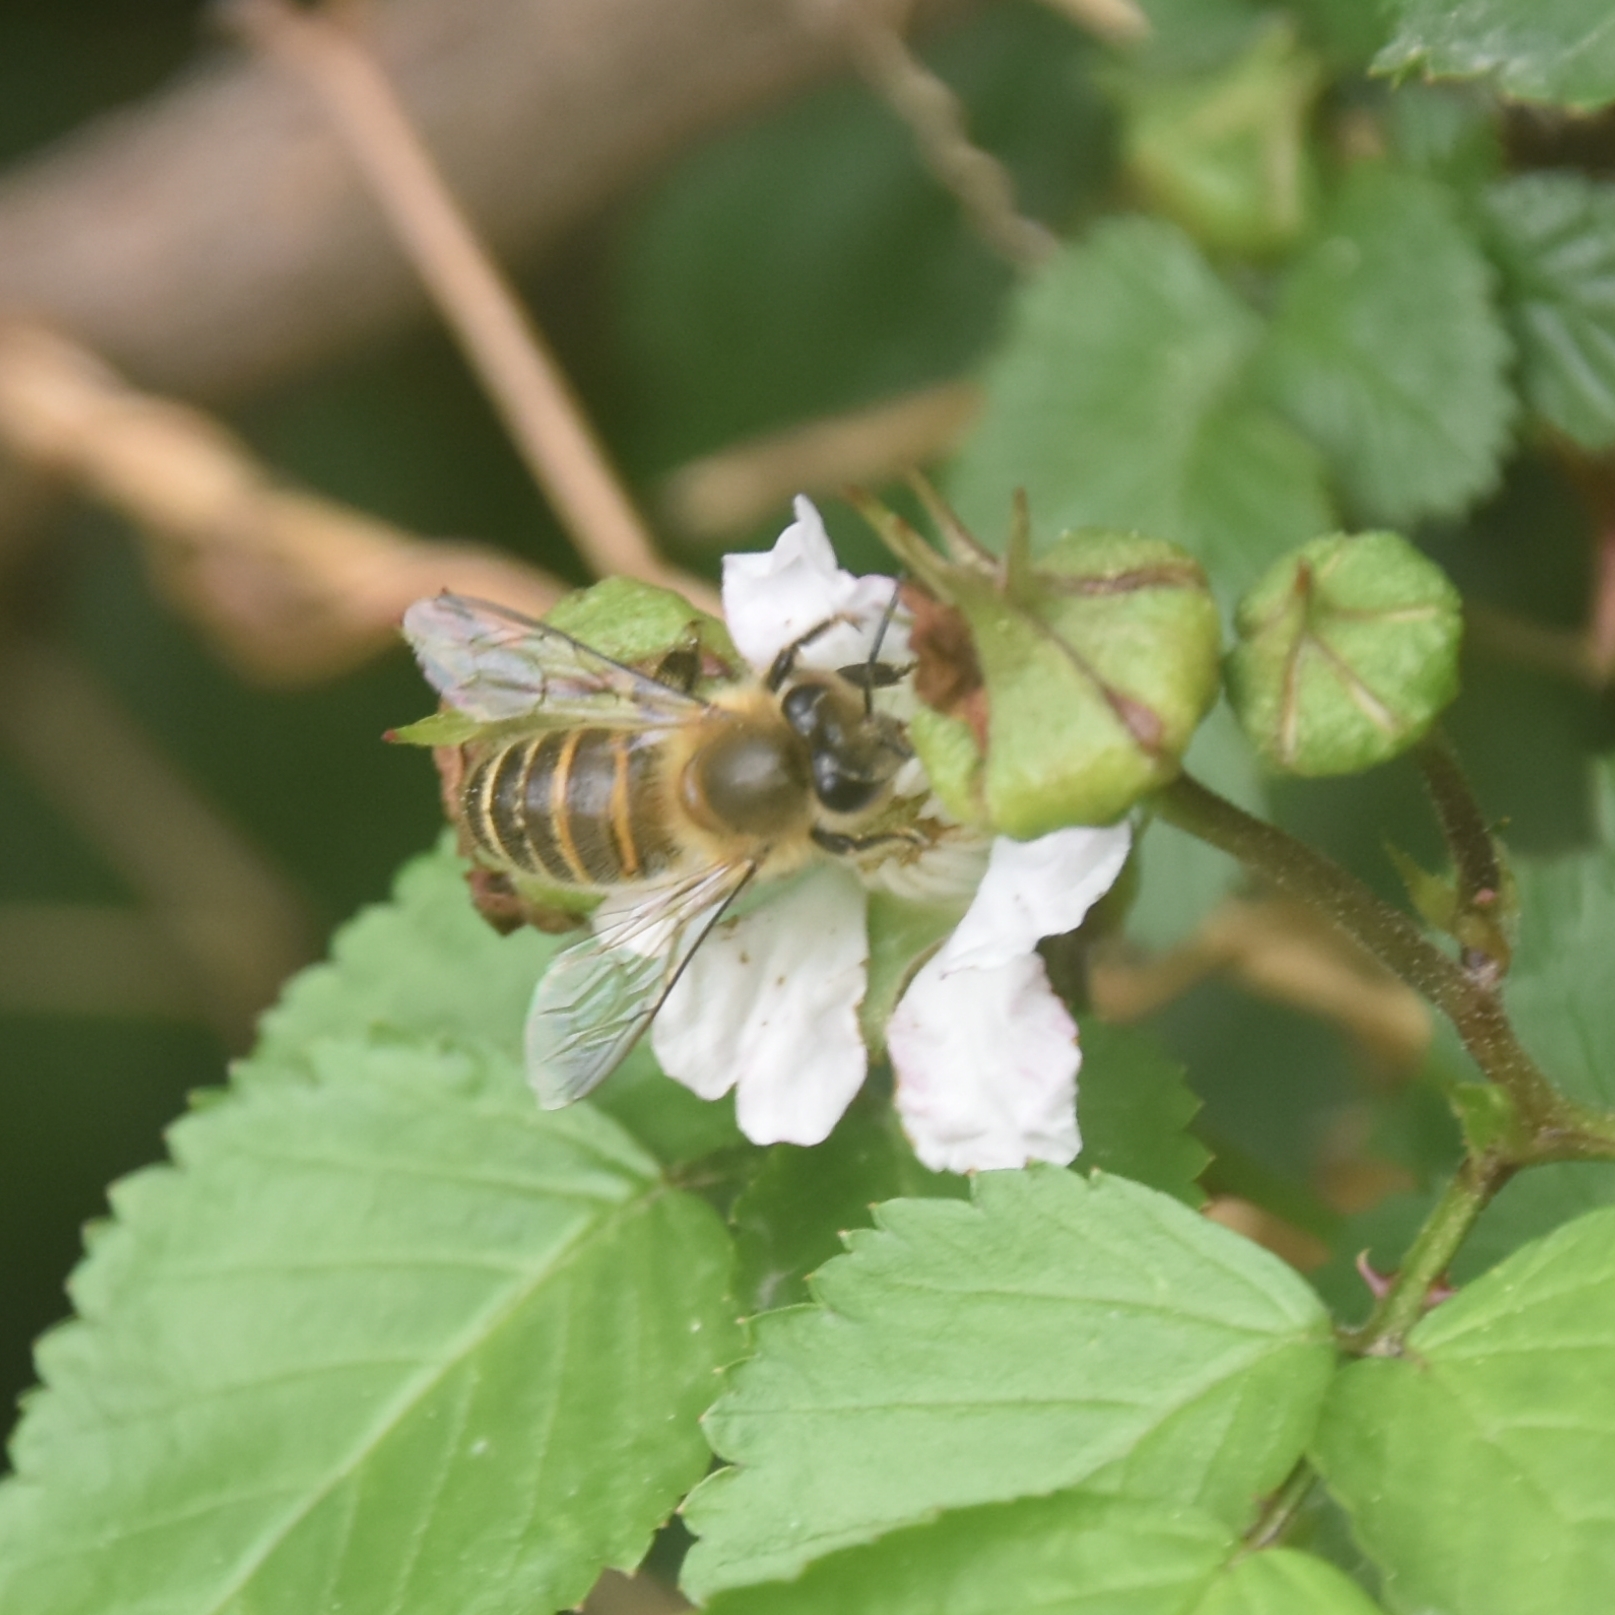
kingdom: Animalia
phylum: Arthropoda
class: Insecta
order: Hymenoptera
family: Apidae
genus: Apis
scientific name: Apis cerana
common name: Honey bee
